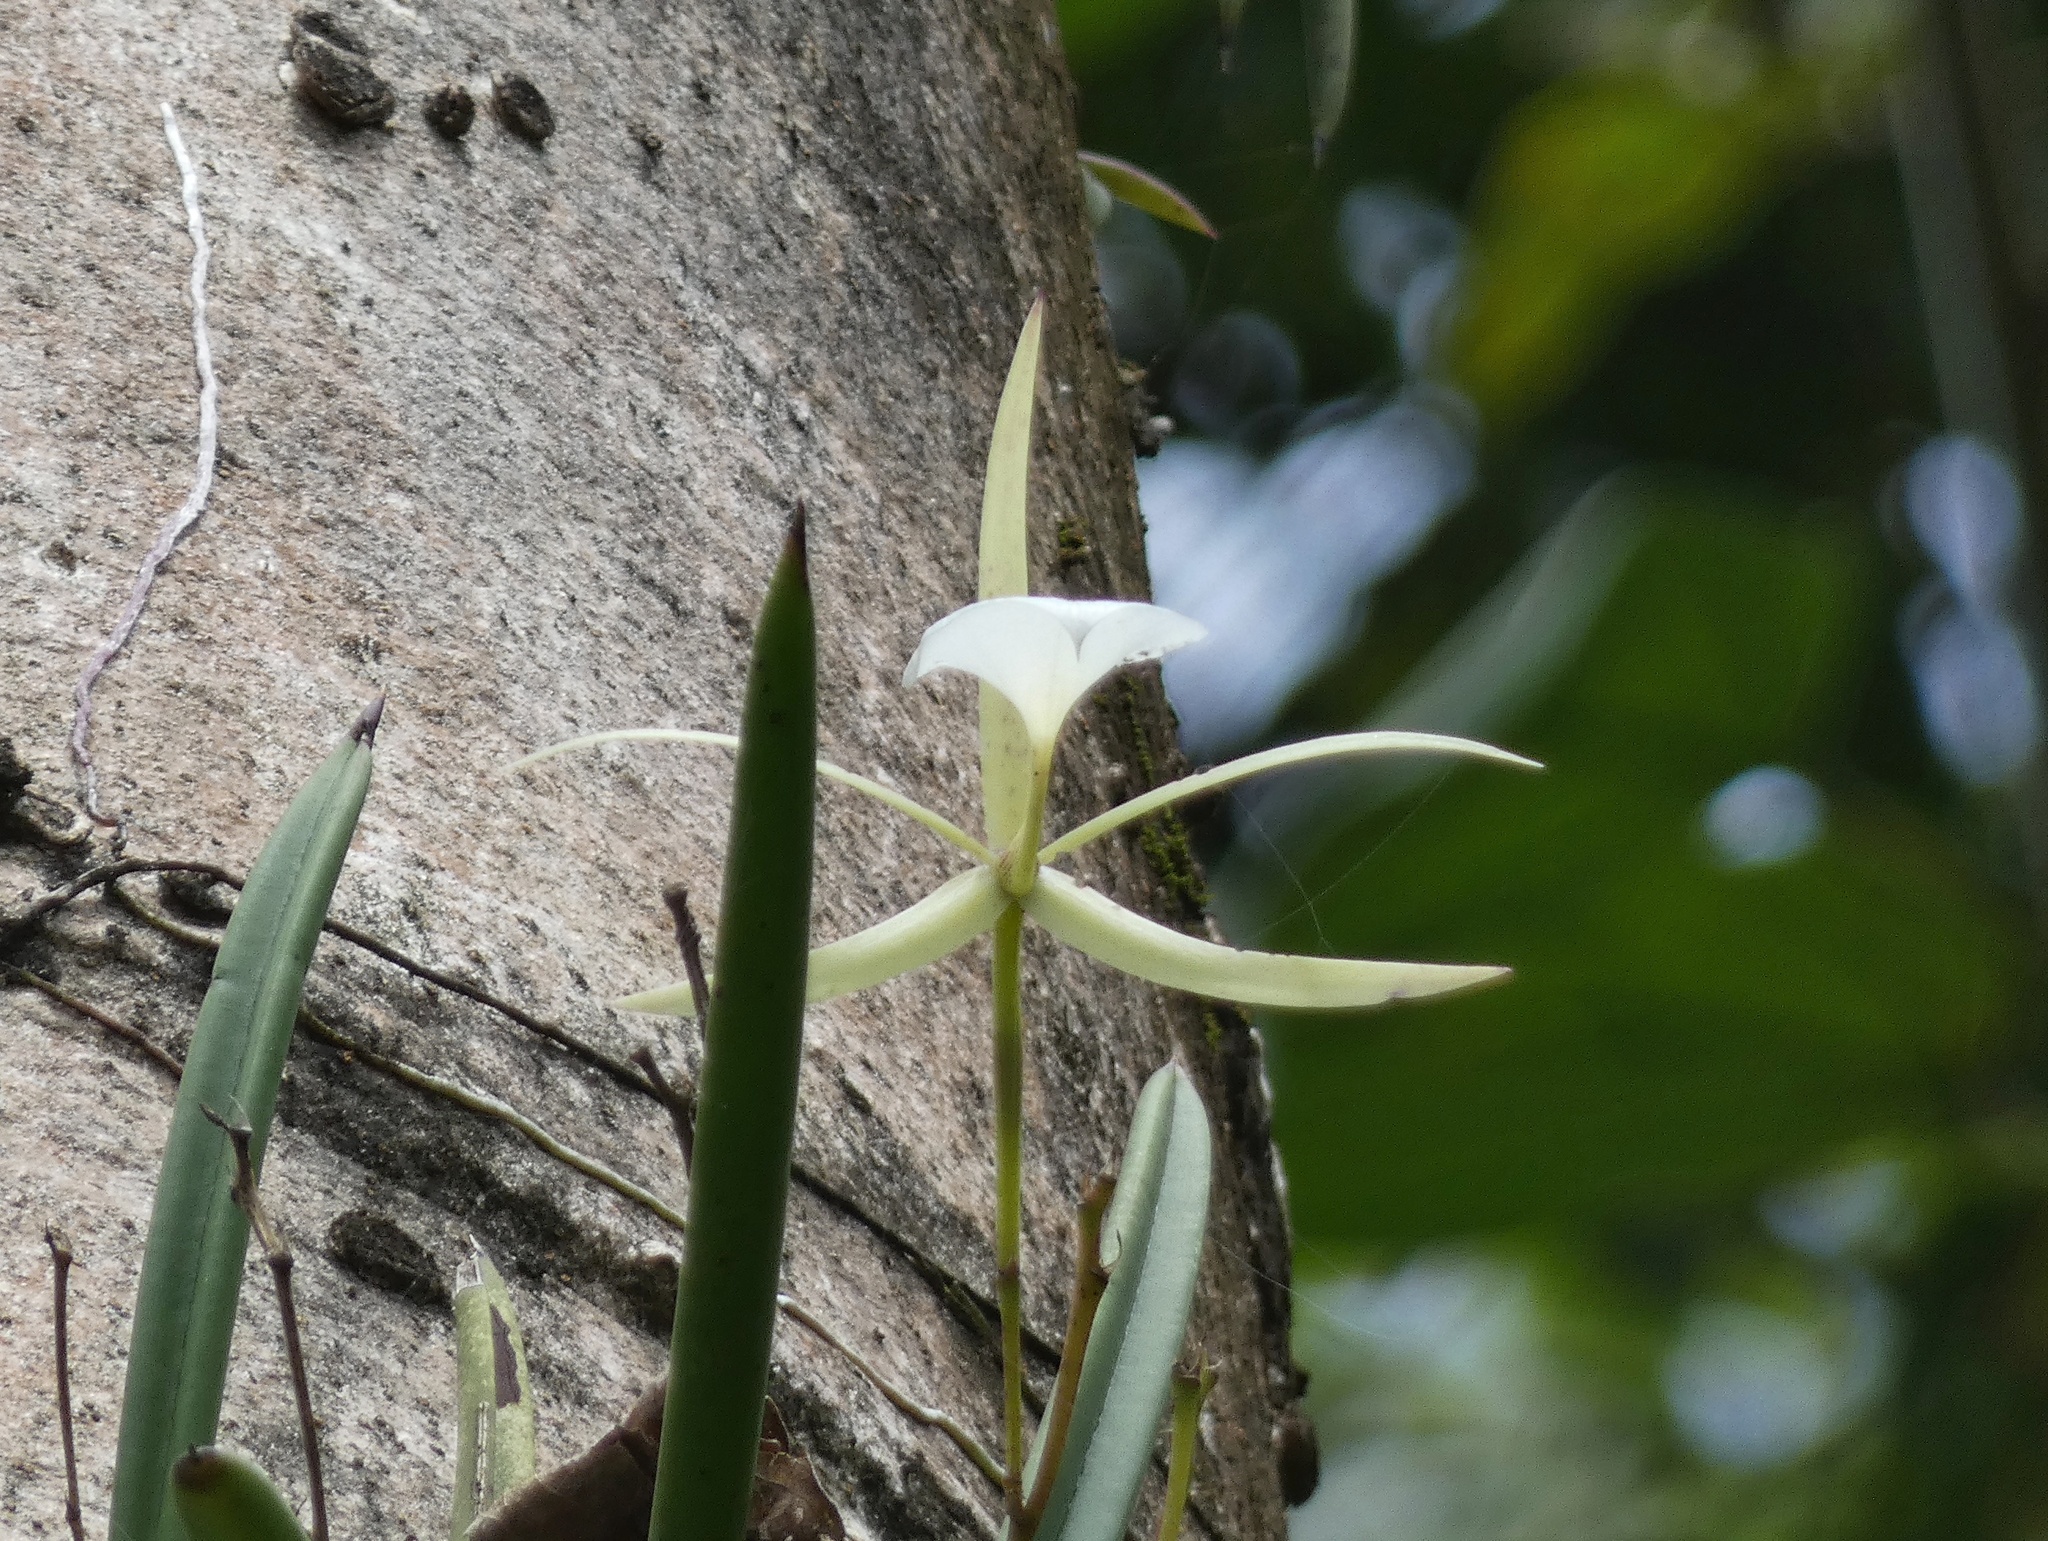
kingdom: Plantae
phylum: Tracheophyta
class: Liliopsida
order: Asparagales
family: Orchidaceae
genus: Brassavola
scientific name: Brassavola nodosa
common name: Lady of the night
